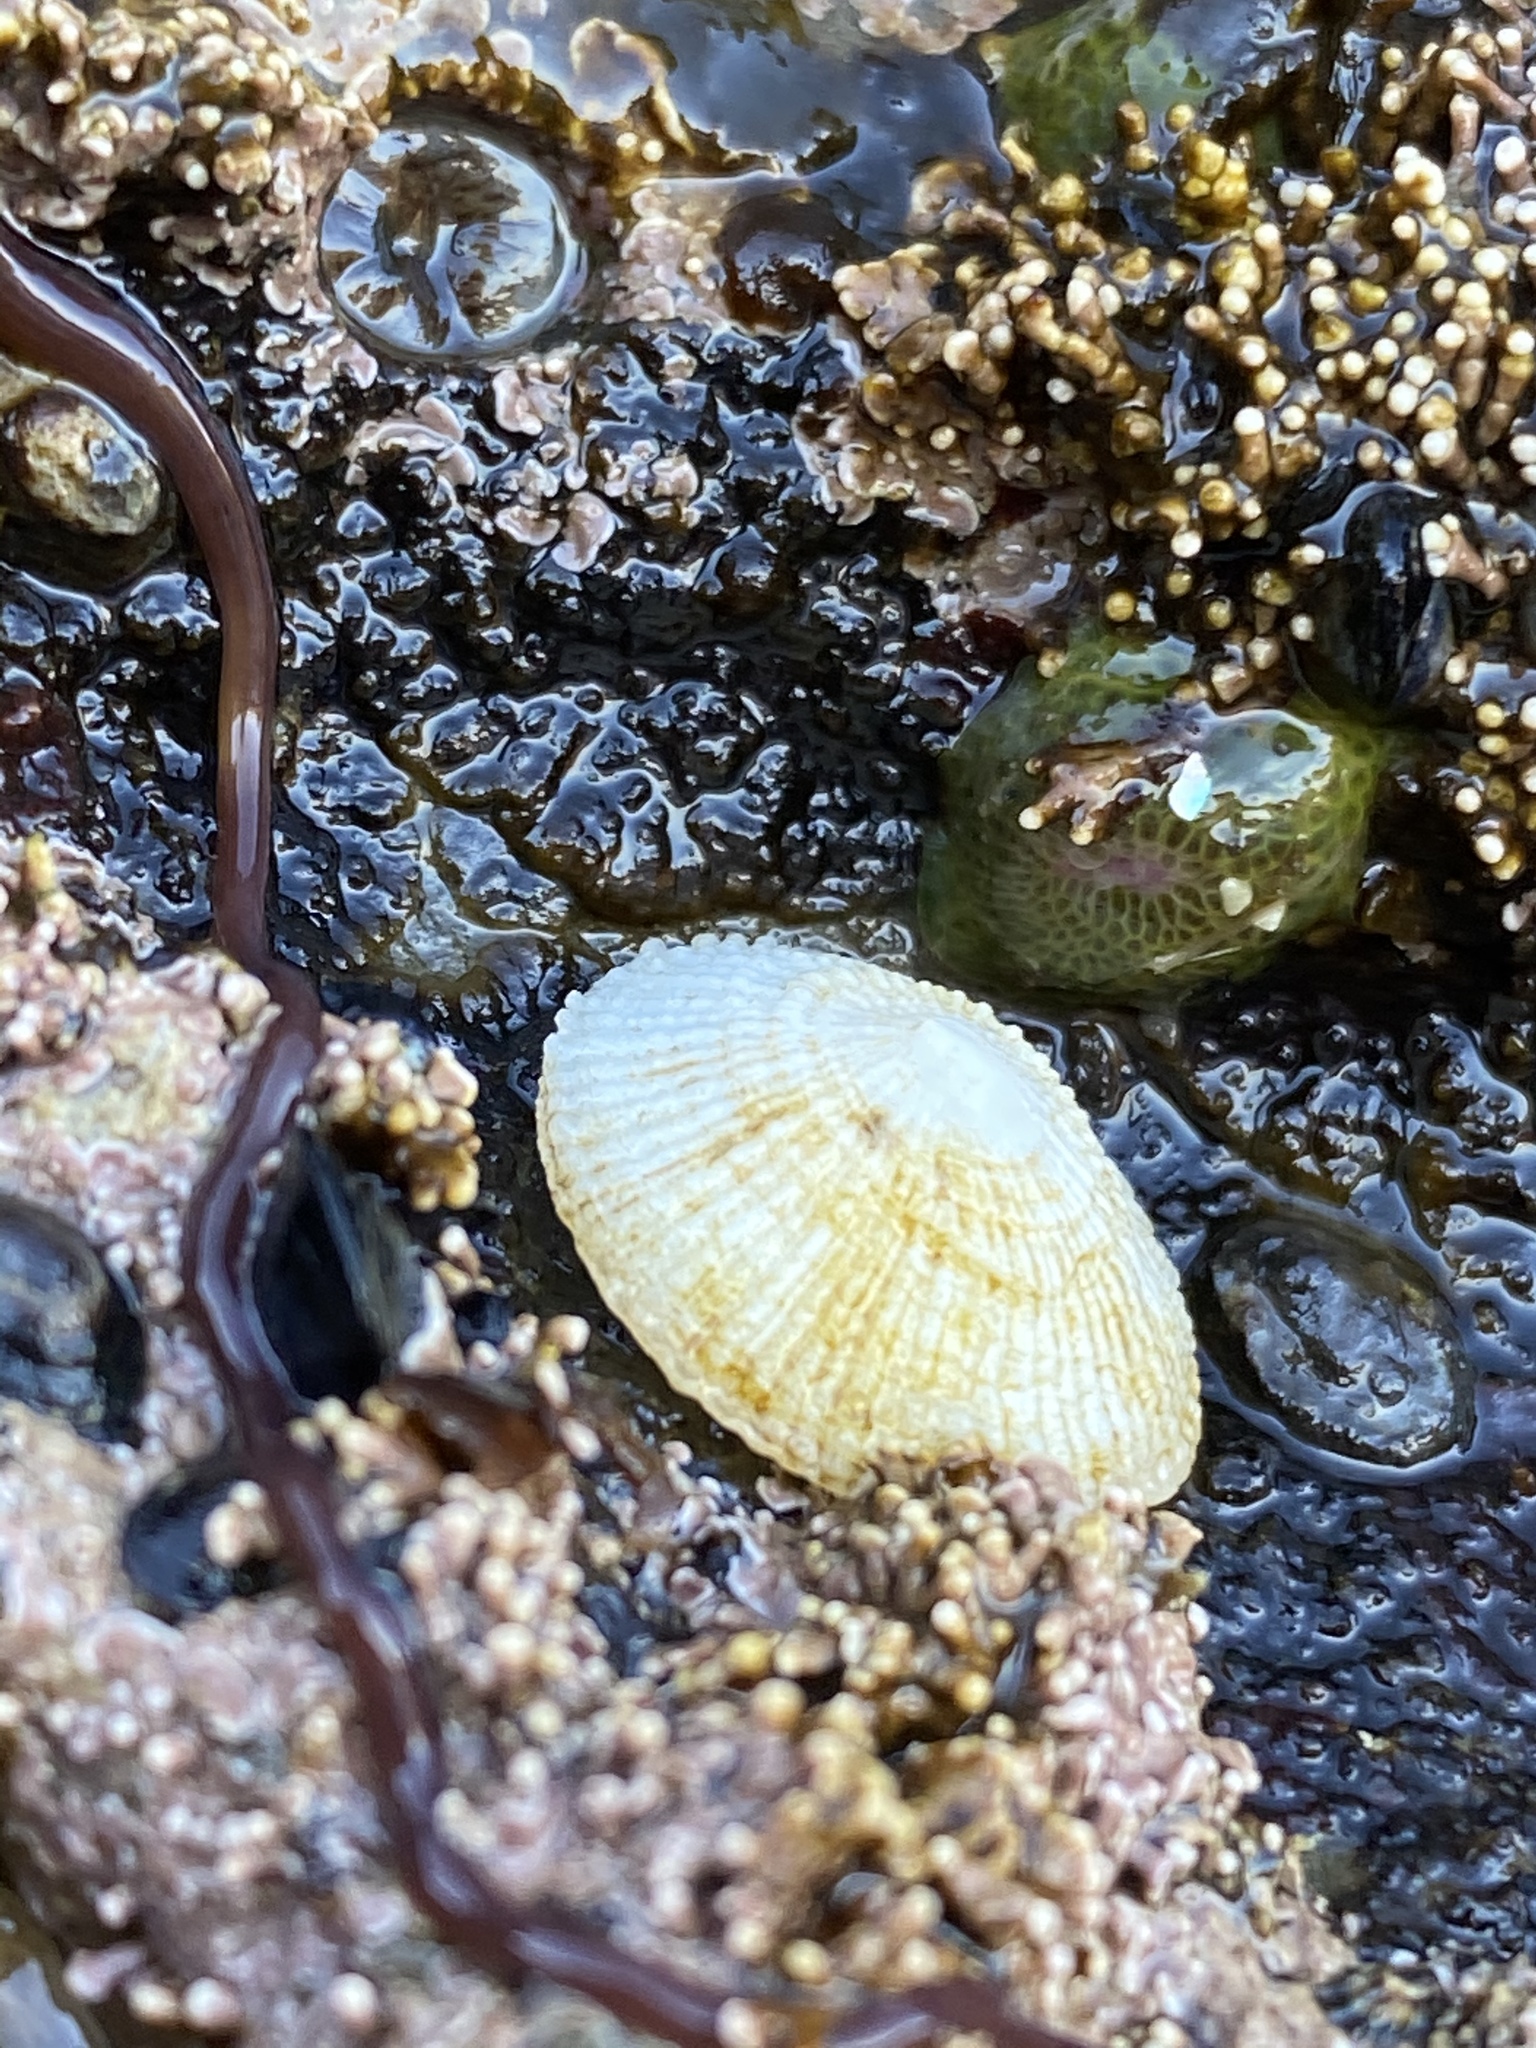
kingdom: Animalia
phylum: Mollusca
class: Gastropoda
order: Ellobiida
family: Trimusculidae
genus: Trimusculus
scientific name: Trimusculus reticulatus
